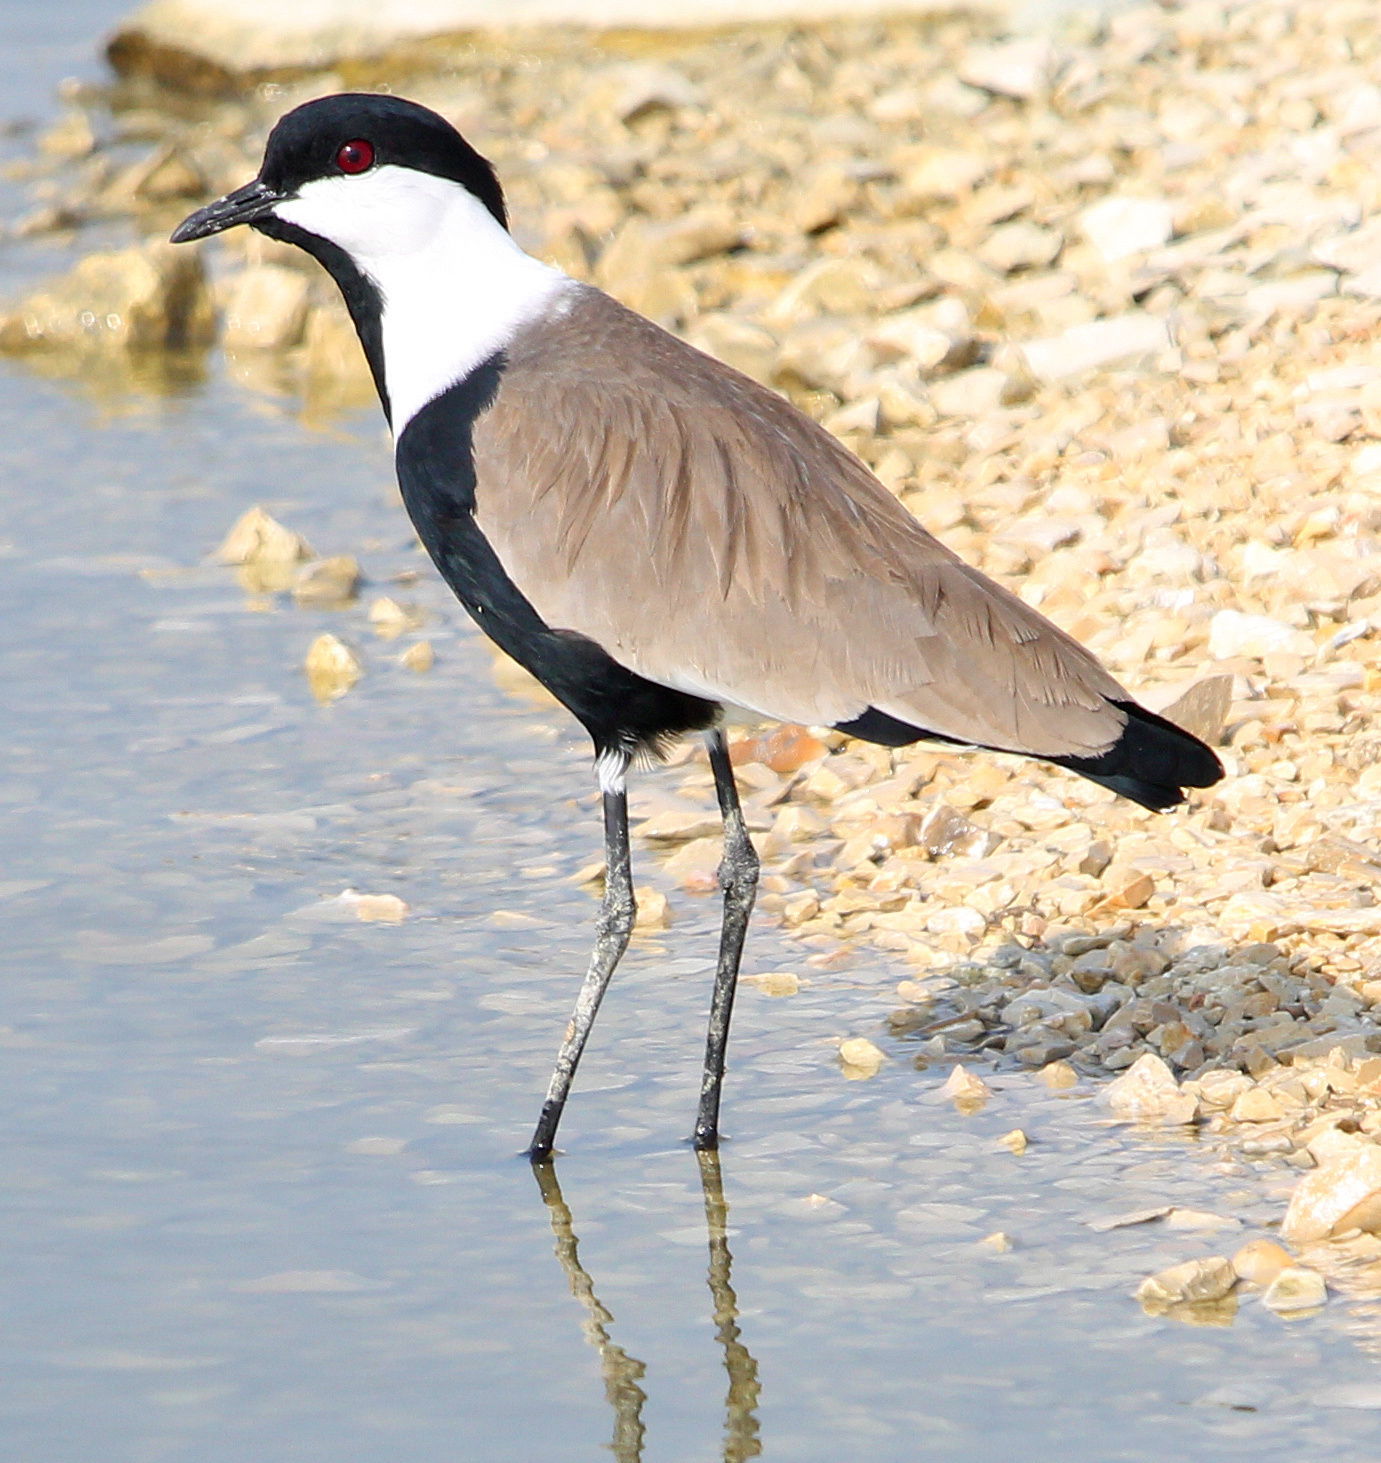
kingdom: Animalia
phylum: Chordata
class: Aves
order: Charadriiformes
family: Charadriidae
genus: Vanellus
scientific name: Vanellus spinosus
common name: Spur-winged lapwing
